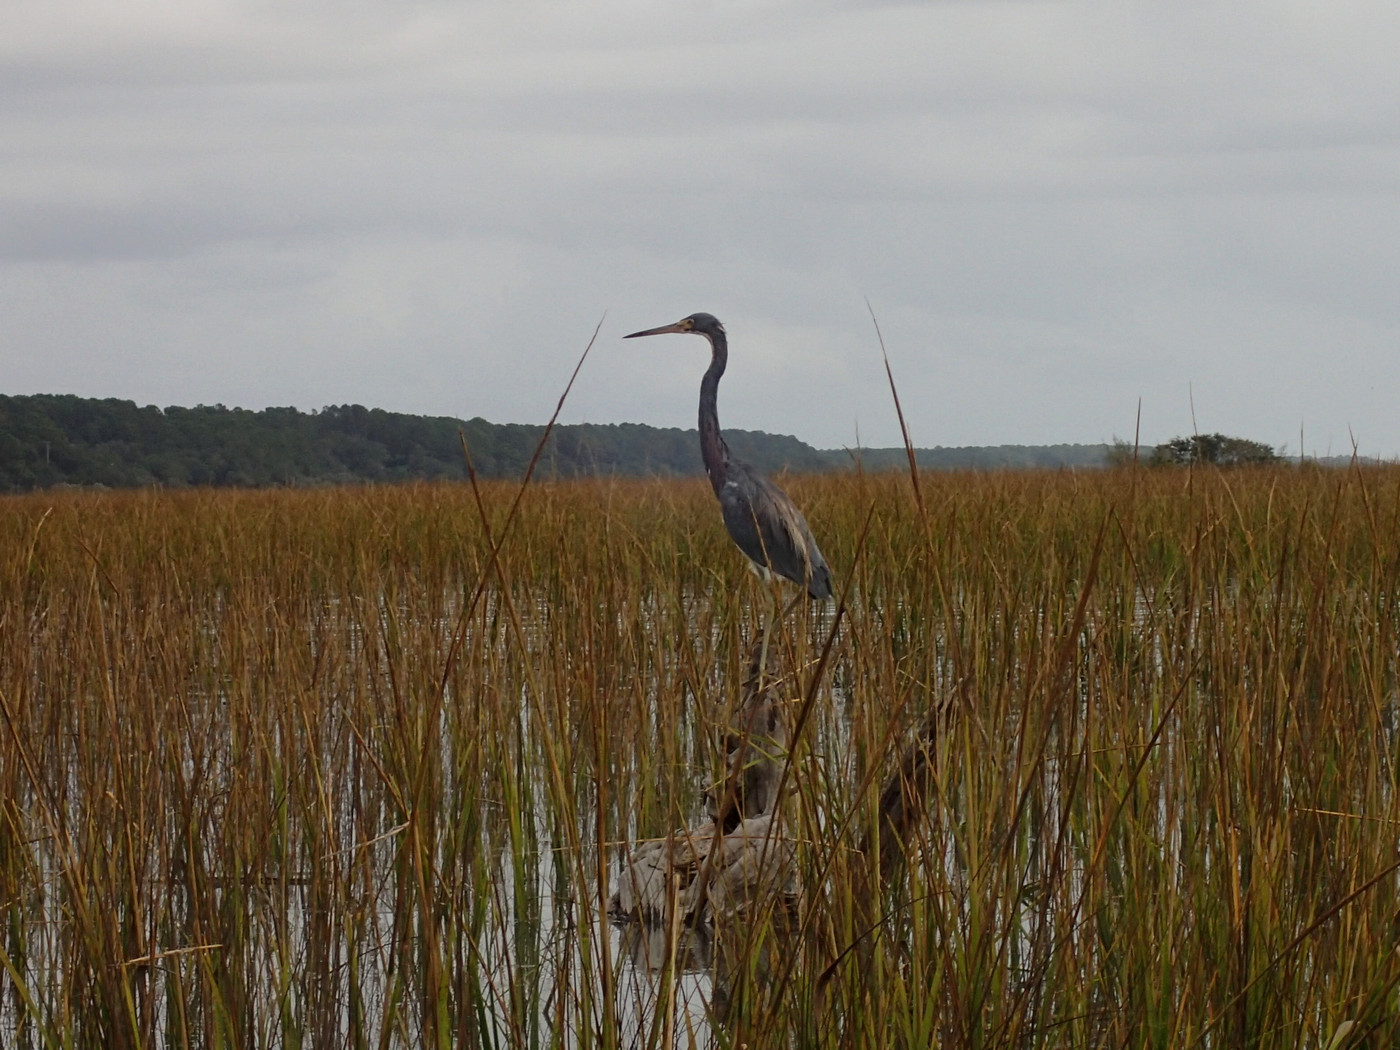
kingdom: Animalia
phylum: Chordata
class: Aves
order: Pelecaniformes
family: Ardeidae
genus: Egretta
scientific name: Egretta tricolor
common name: Tricolored heron
